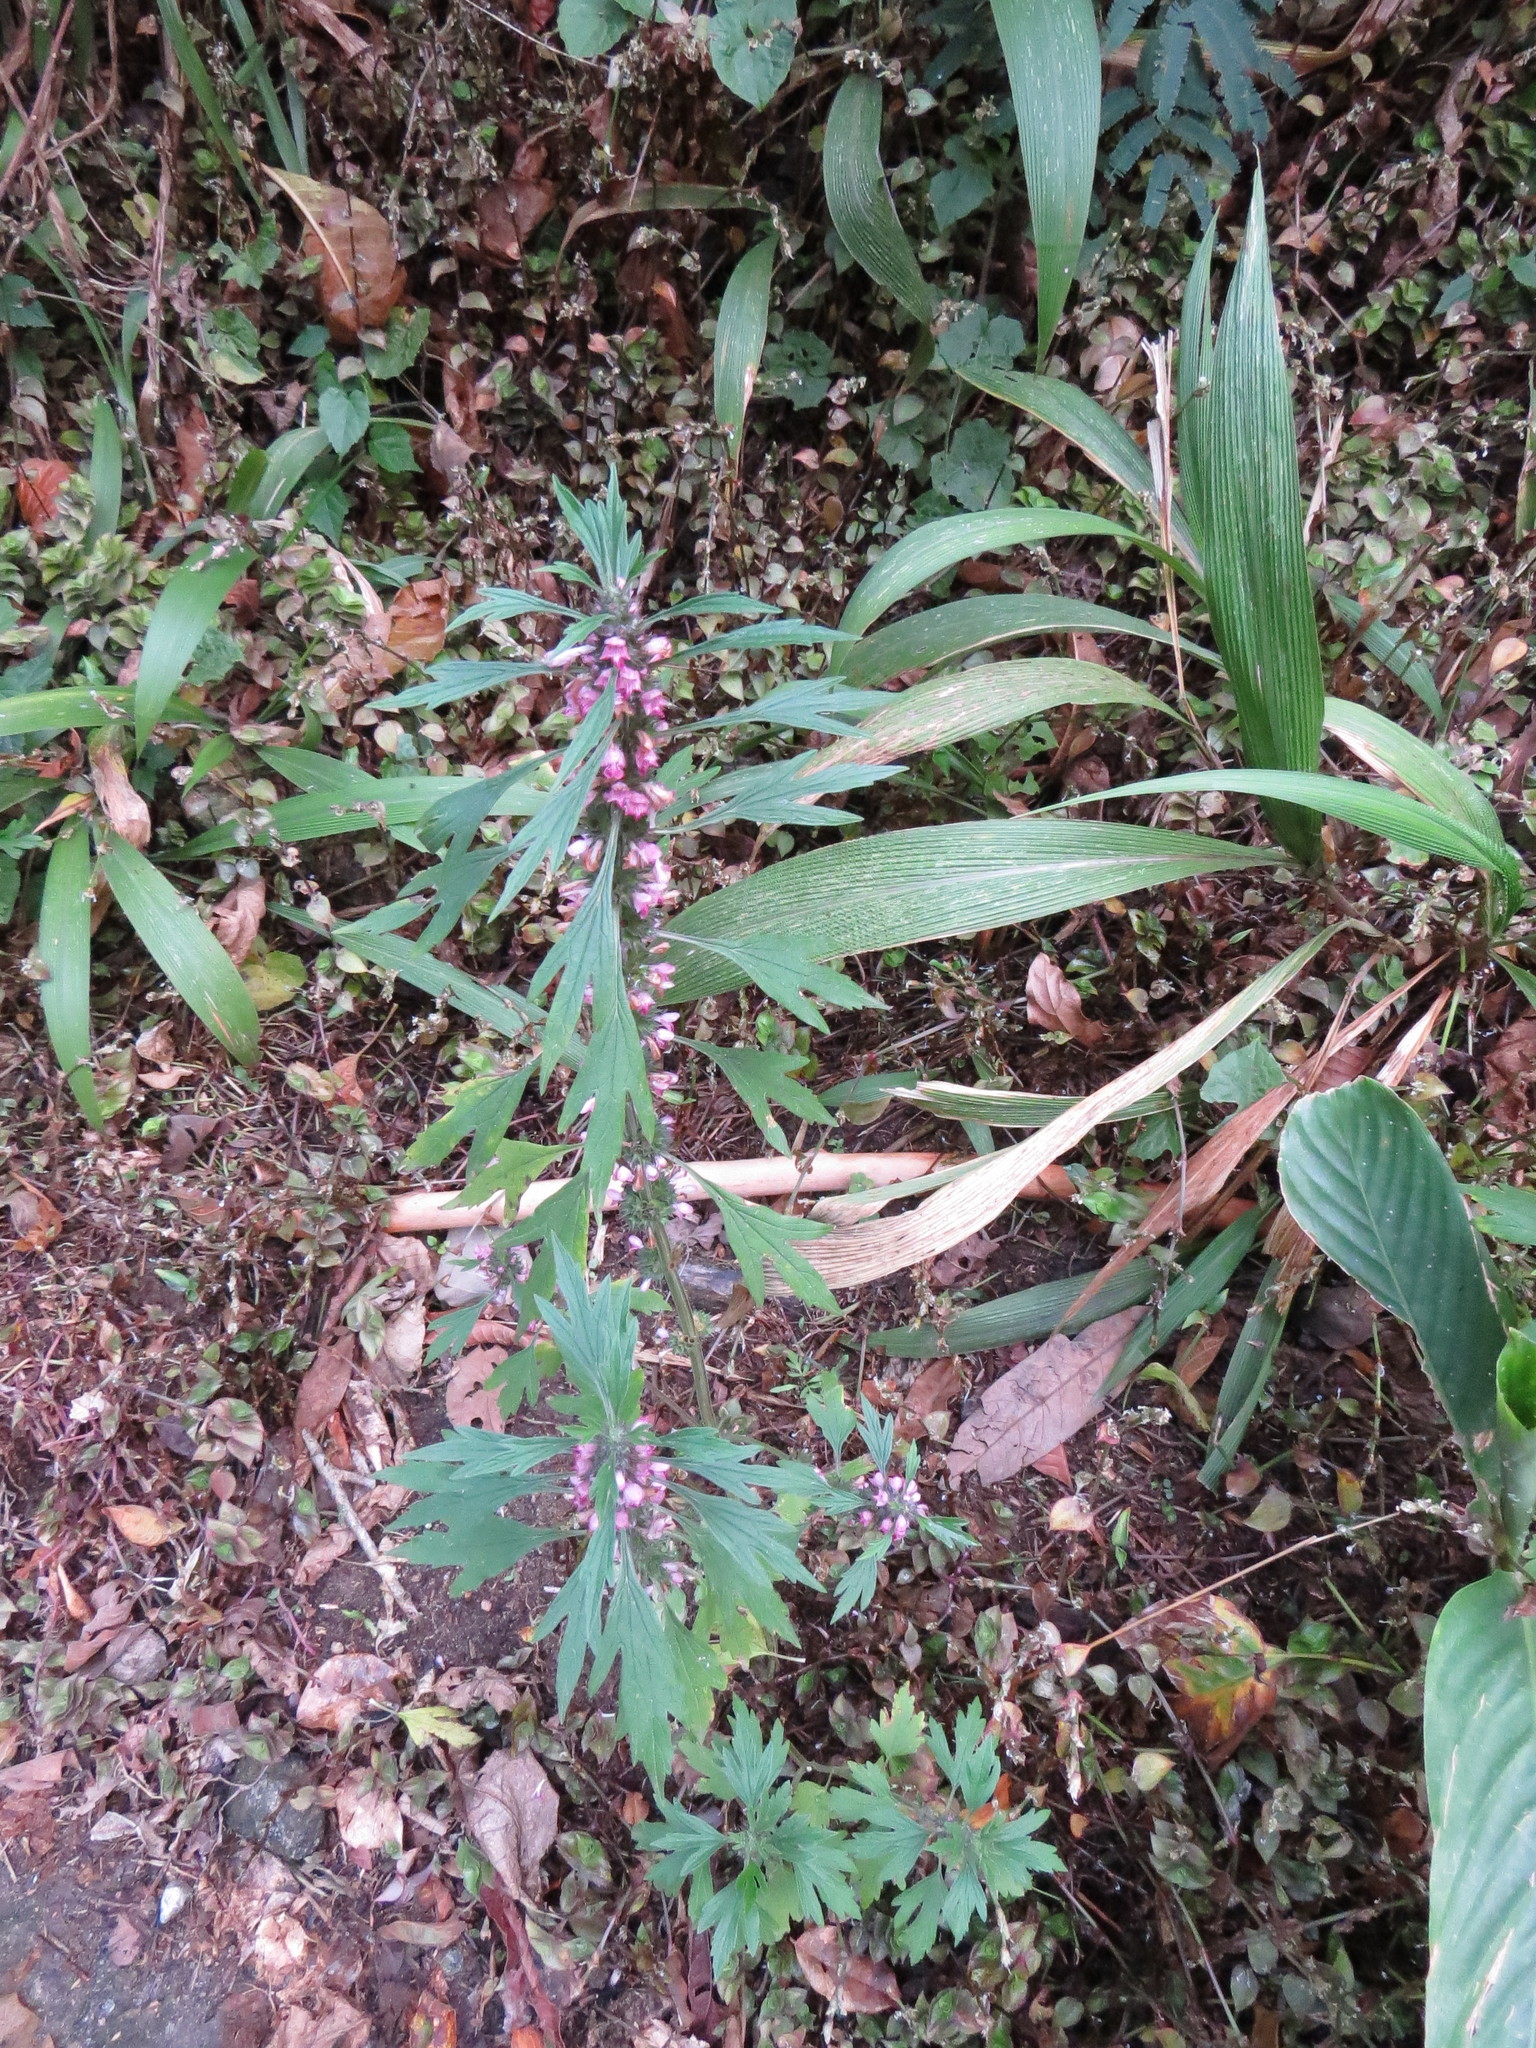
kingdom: Plantae
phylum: Tracheophyta
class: Magnoliopsida
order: Lamiales
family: Lamiaceae
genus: Leonurus
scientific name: Leonurus japonicus
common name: Honeyweed
